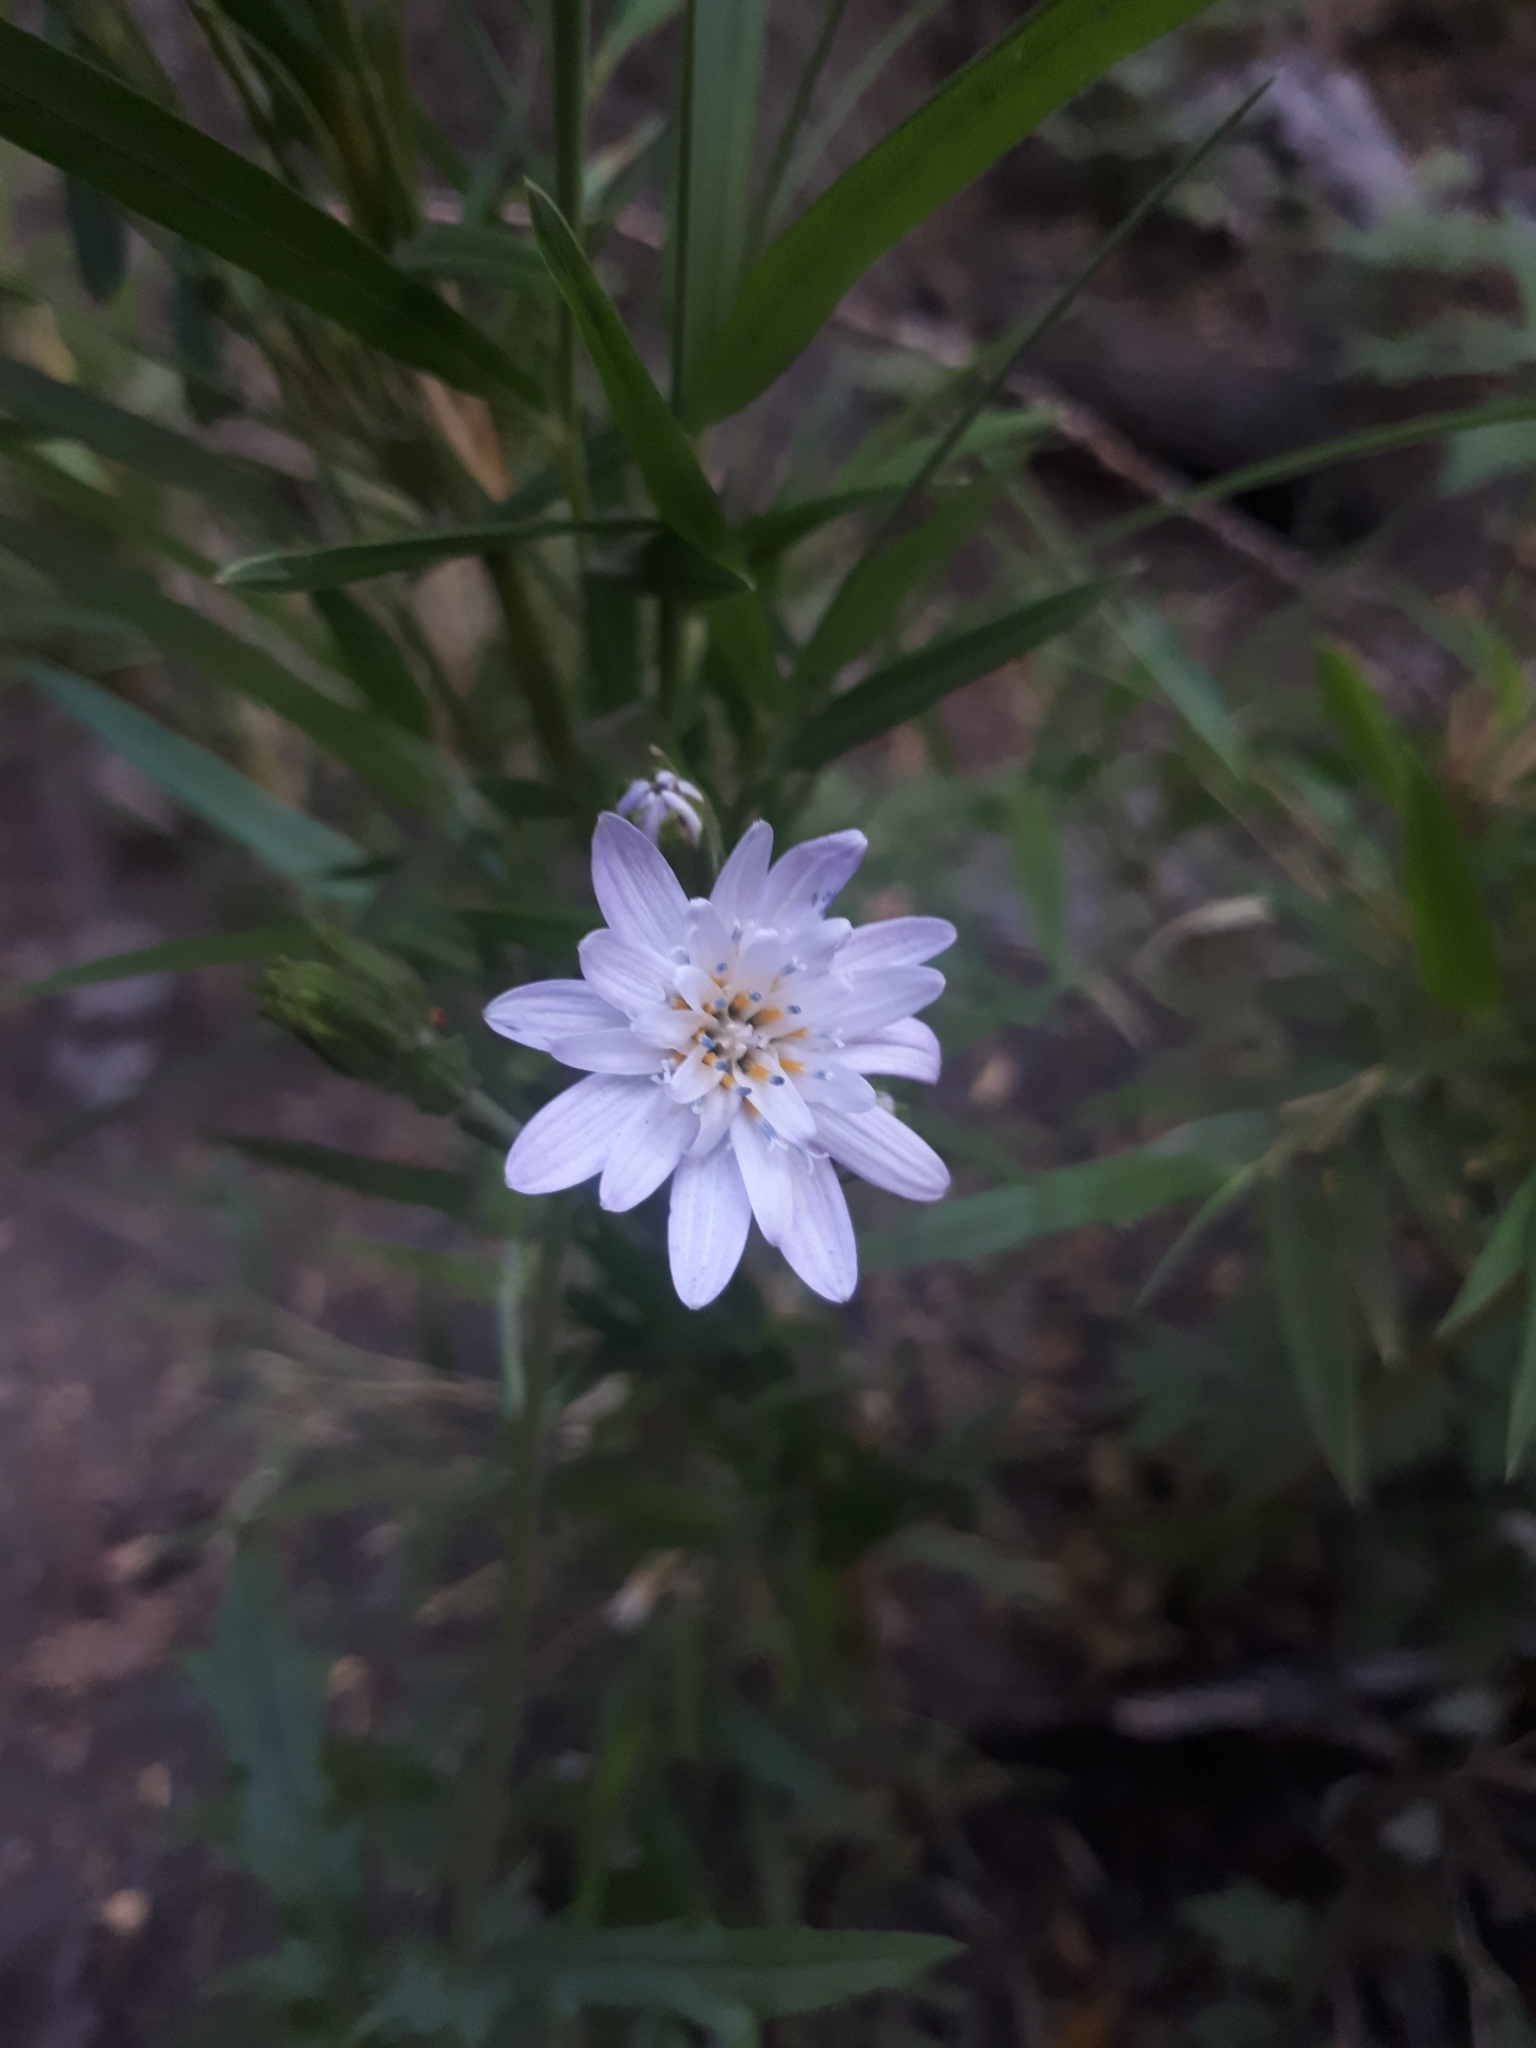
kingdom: Plantae
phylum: Tracheophyta
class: Magnoliopsida
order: Asterales
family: Asteraceae
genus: Leucheria
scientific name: Leucheria glacialis
